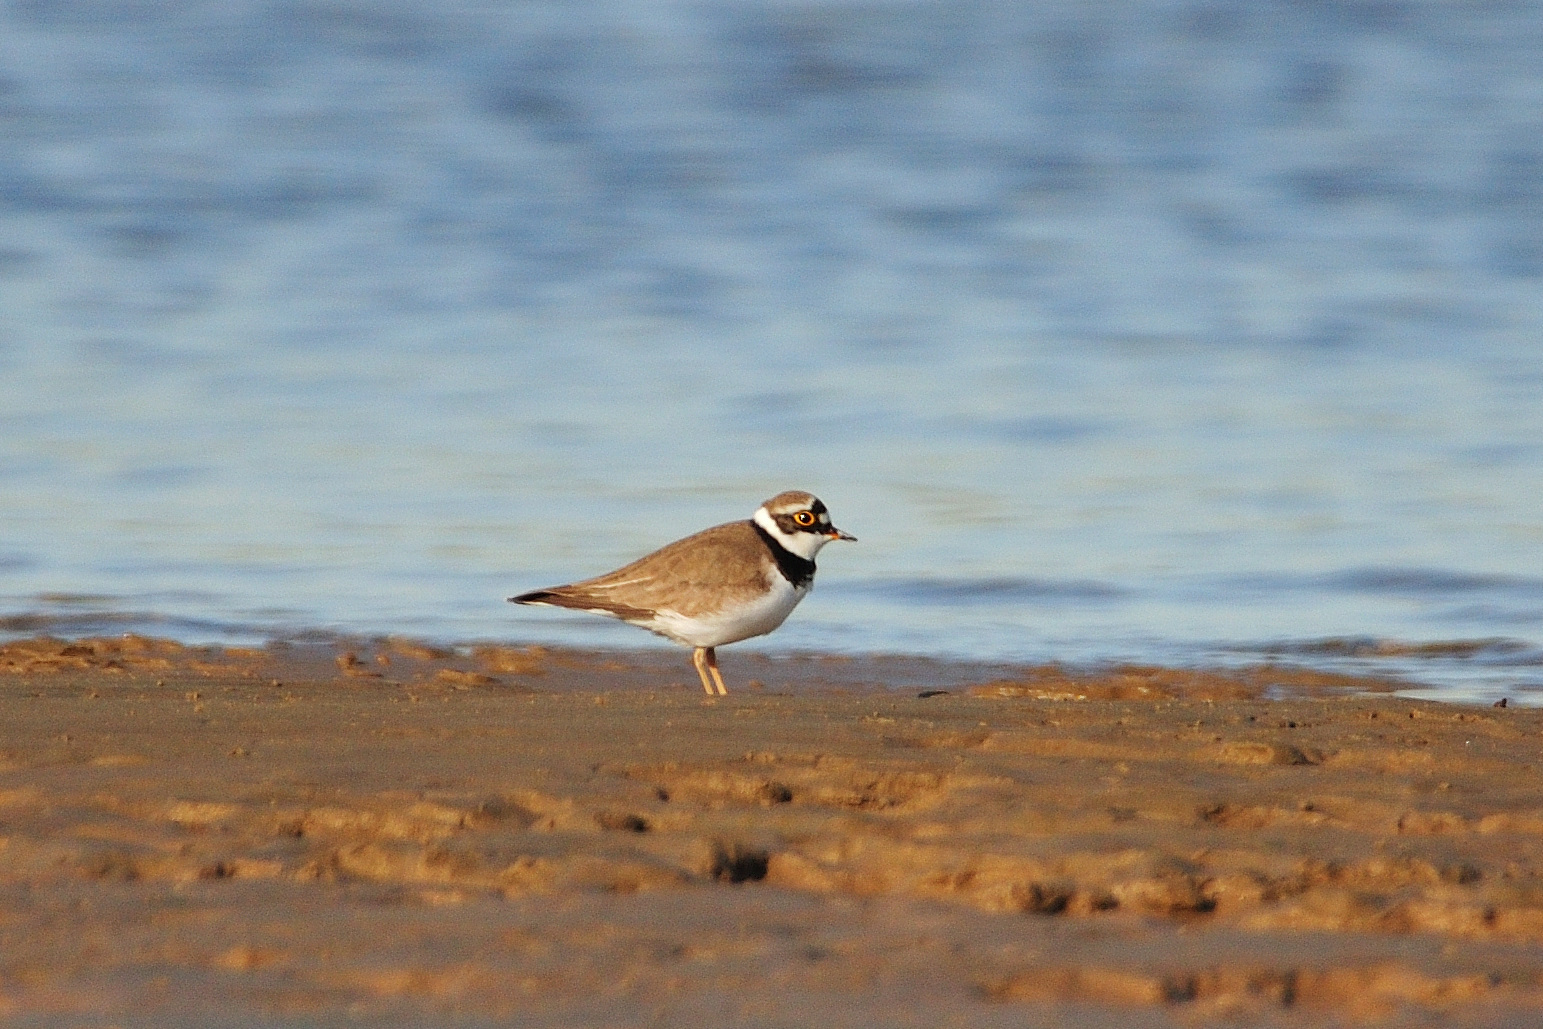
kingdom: Animalia
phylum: Chordata
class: Aves
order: Charadriiformes
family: Charadriidae
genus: Charadrius
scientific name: Charadrius dubius
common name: Little ringed plover
